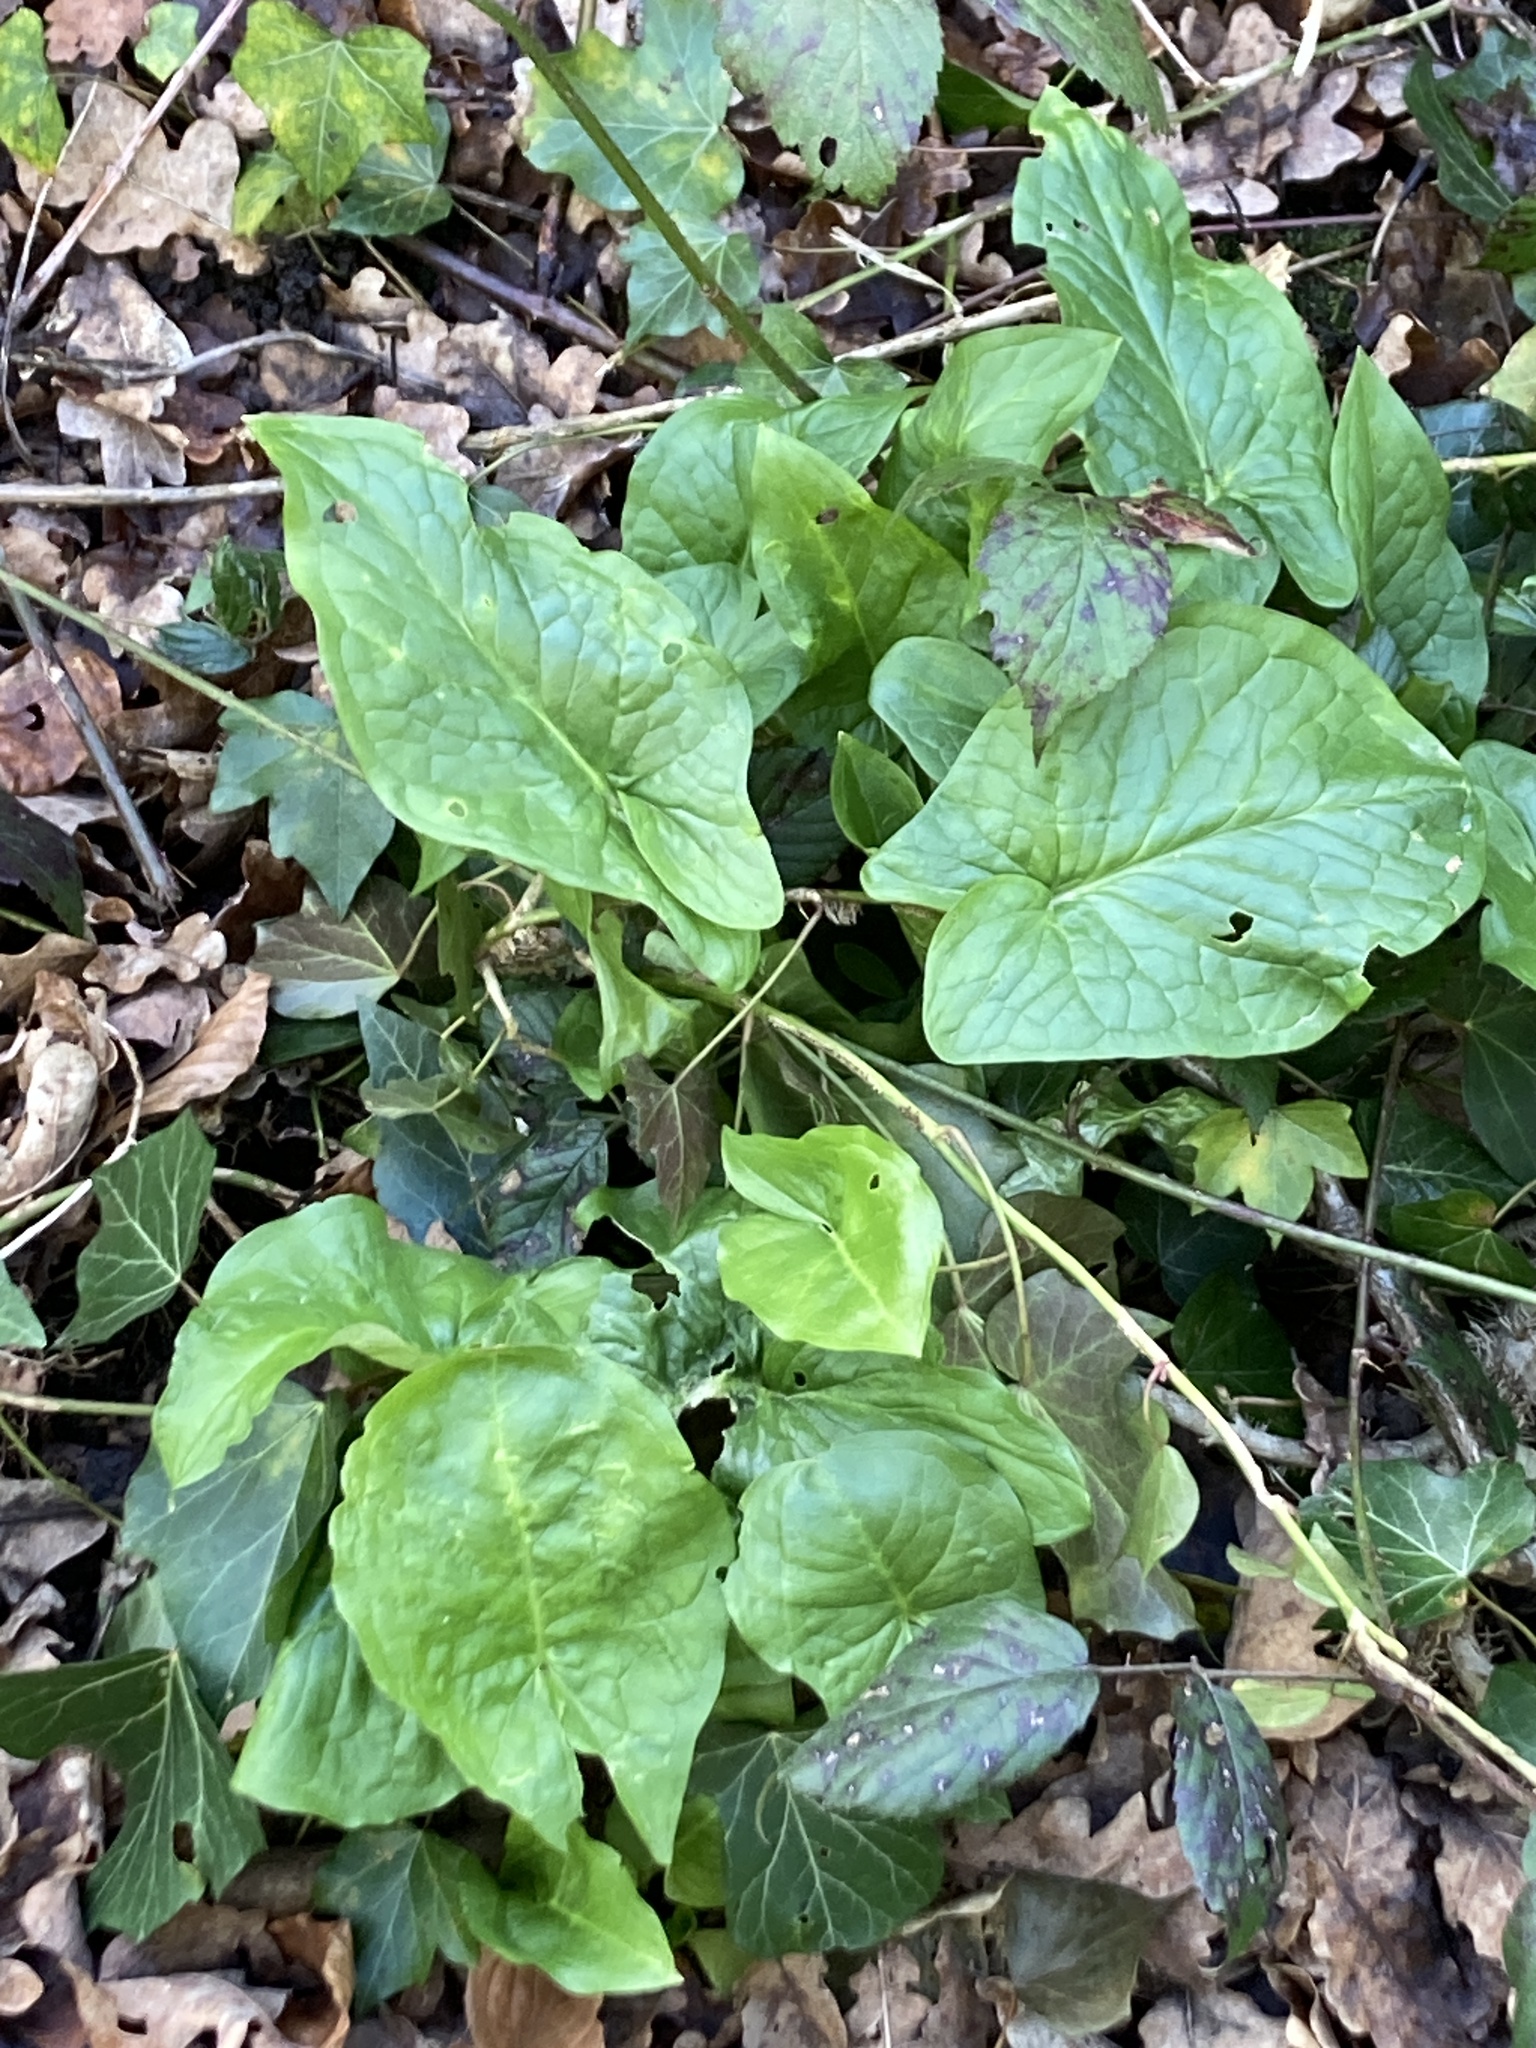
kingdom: Plantae
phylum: Tracheophyta
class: Liliopsida
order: Alismatales
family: Araceae
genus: Arum
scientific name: Arum maculatum
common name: Lords-and-ladies
